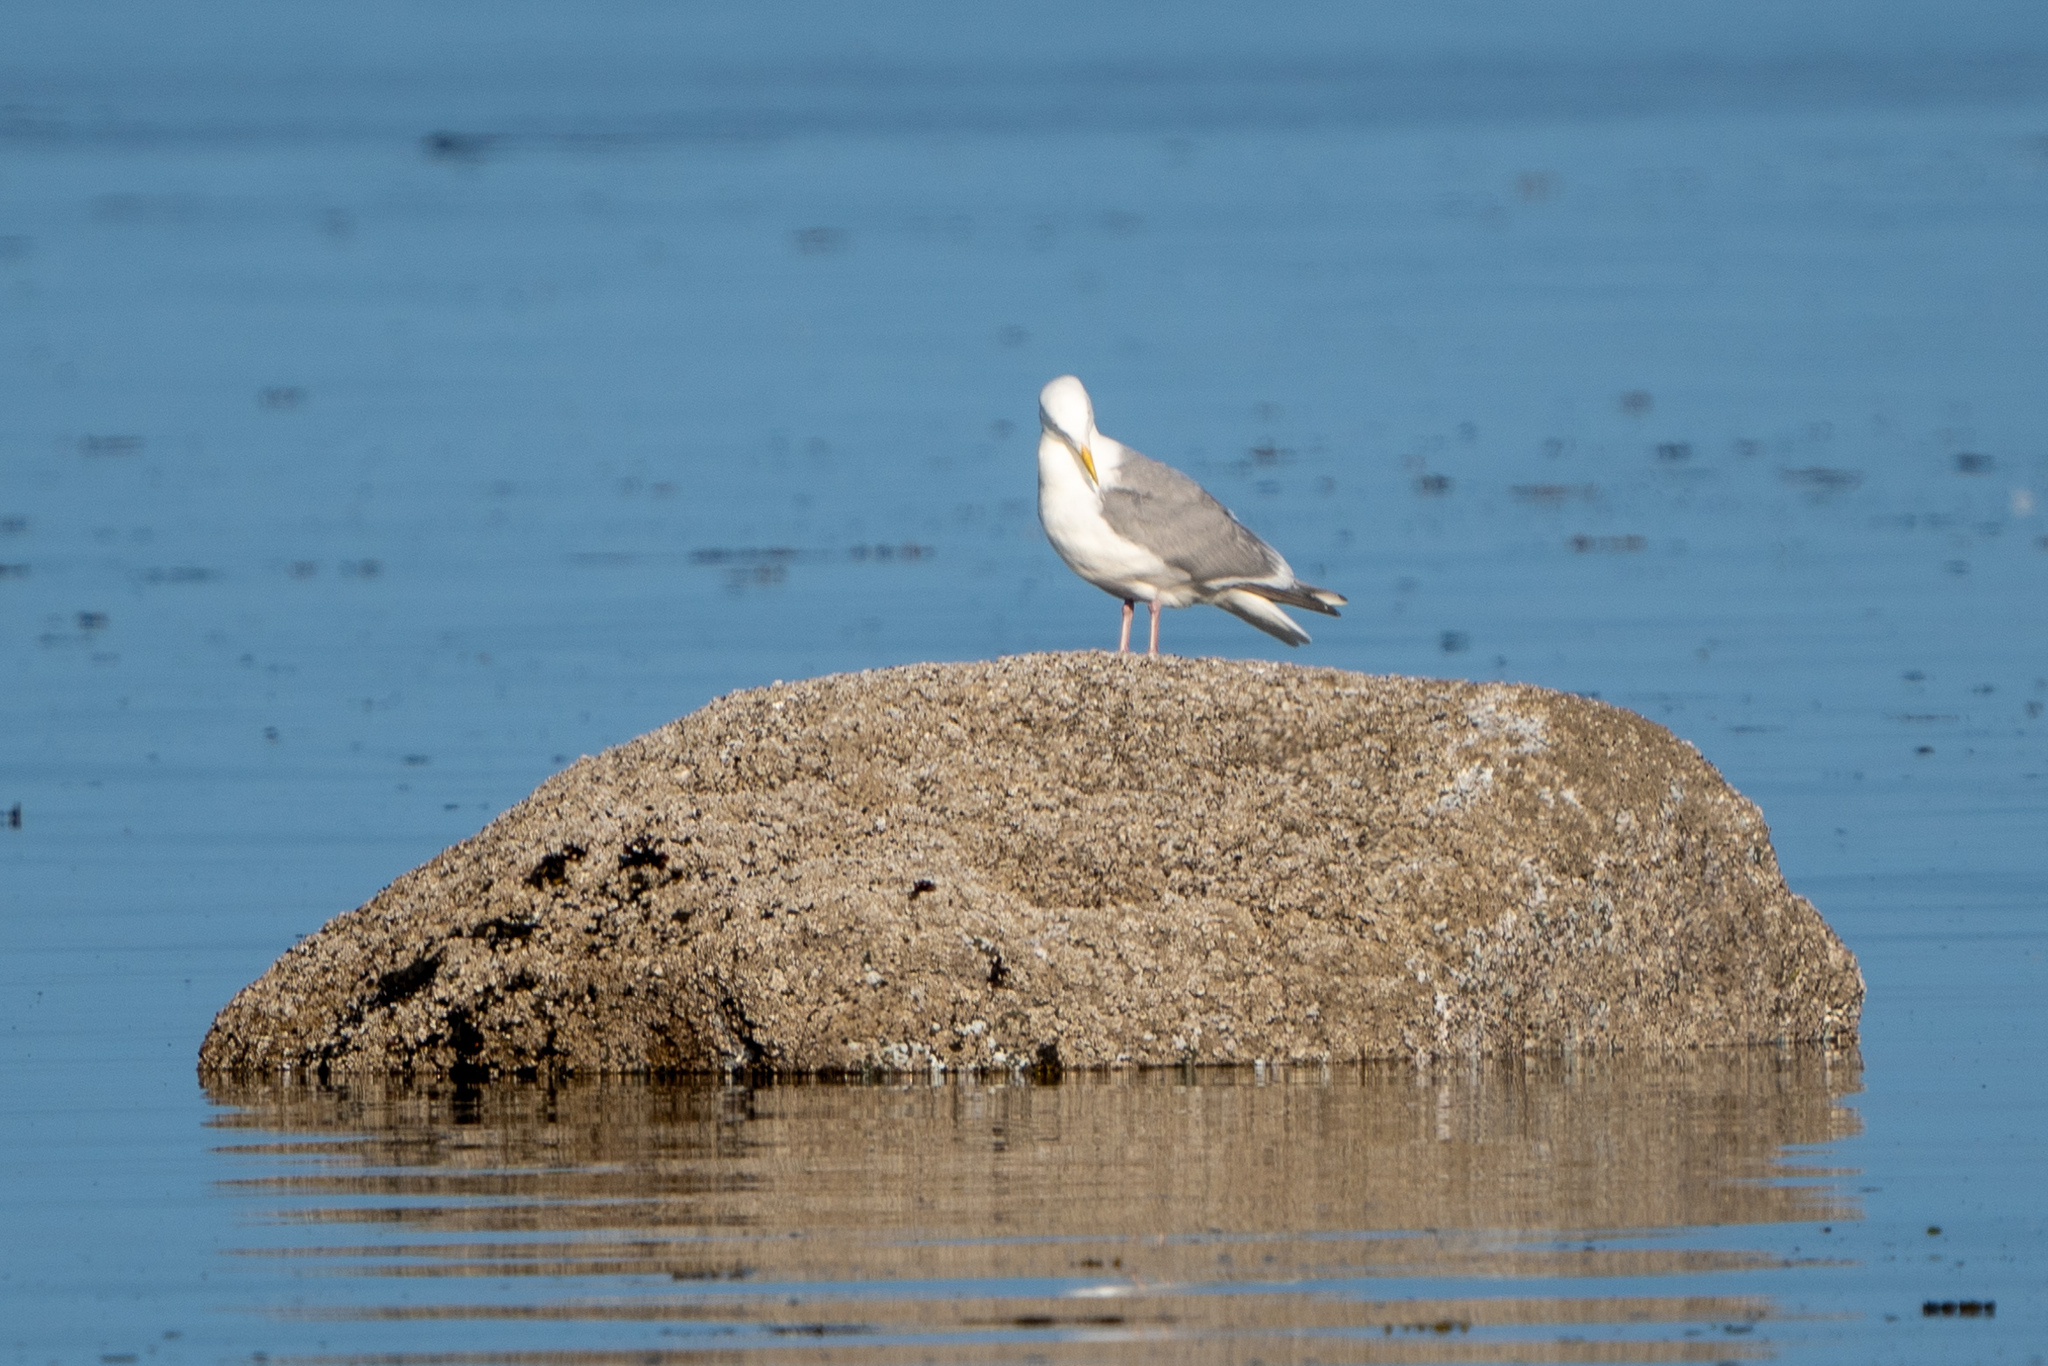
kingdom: Animalia
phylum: Chordata
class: Aves
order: Charadriiformes
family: Laridae
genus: Larus
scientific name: Larus glaucescens
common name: Glaucous-winged gull
